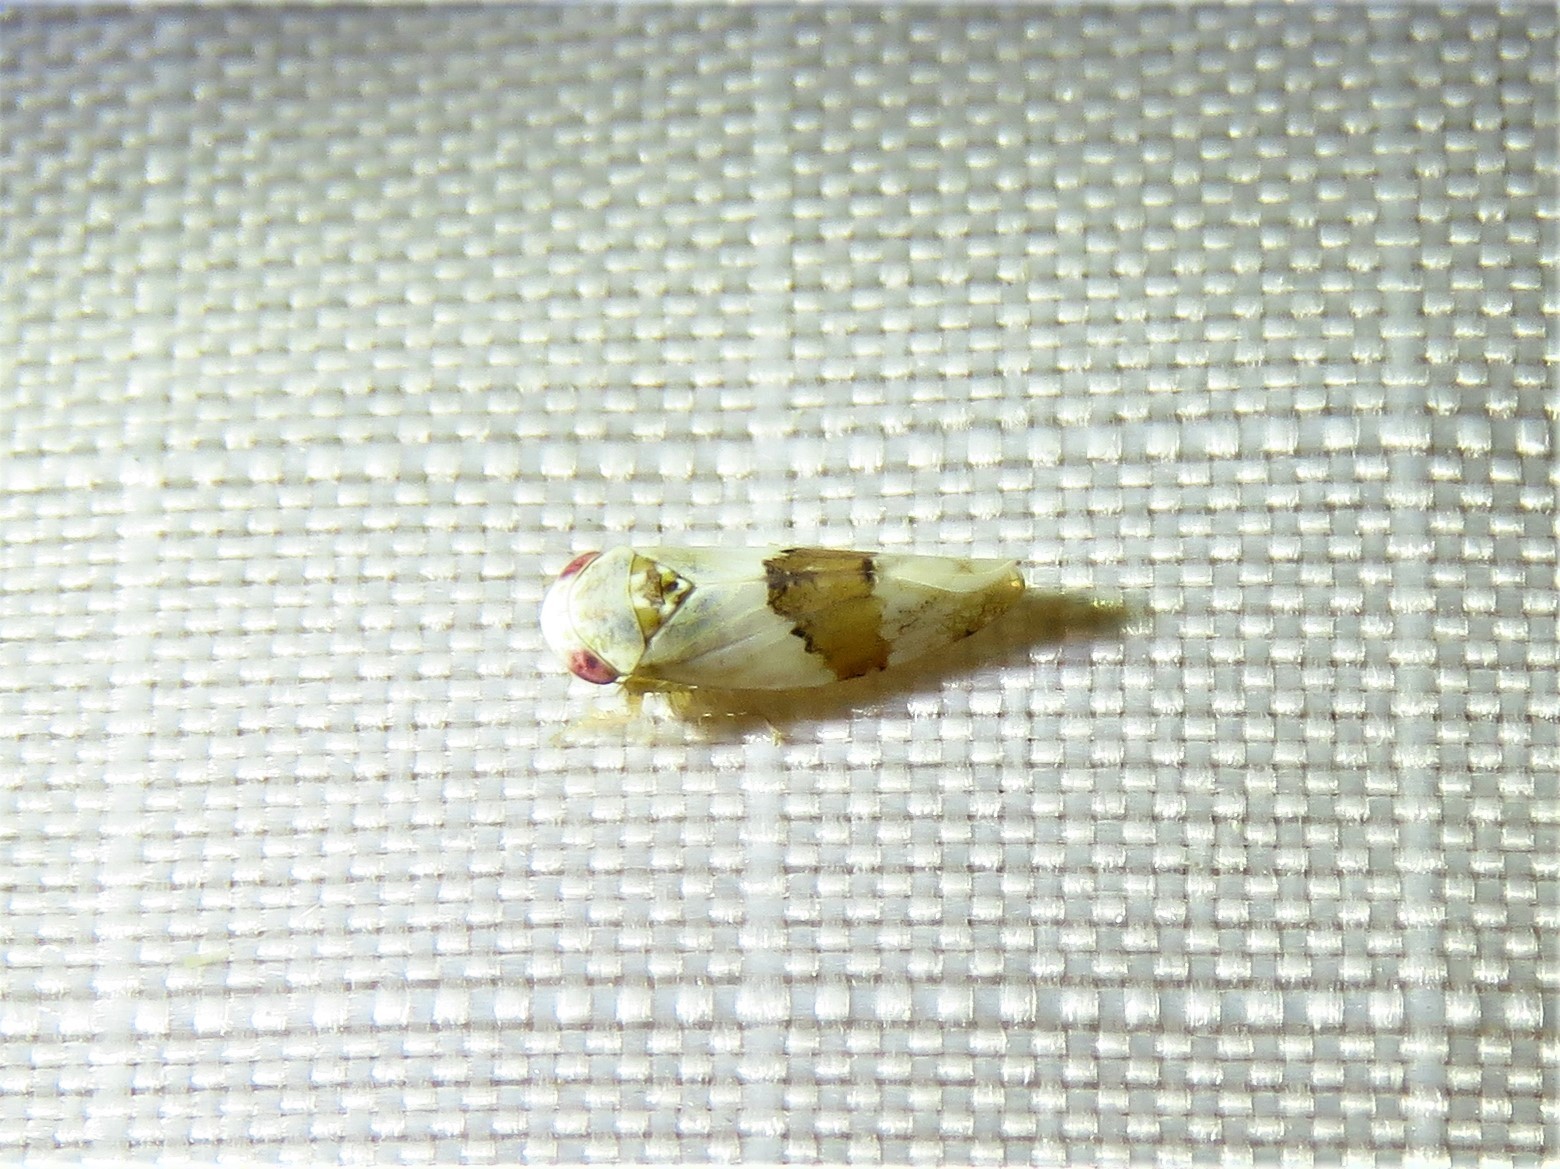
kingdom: Animalia
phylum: Arthropoda
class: Insecta
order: Hemiptera
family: Cicadellidae
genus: Norvellina
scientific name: Norvellina seminuda
